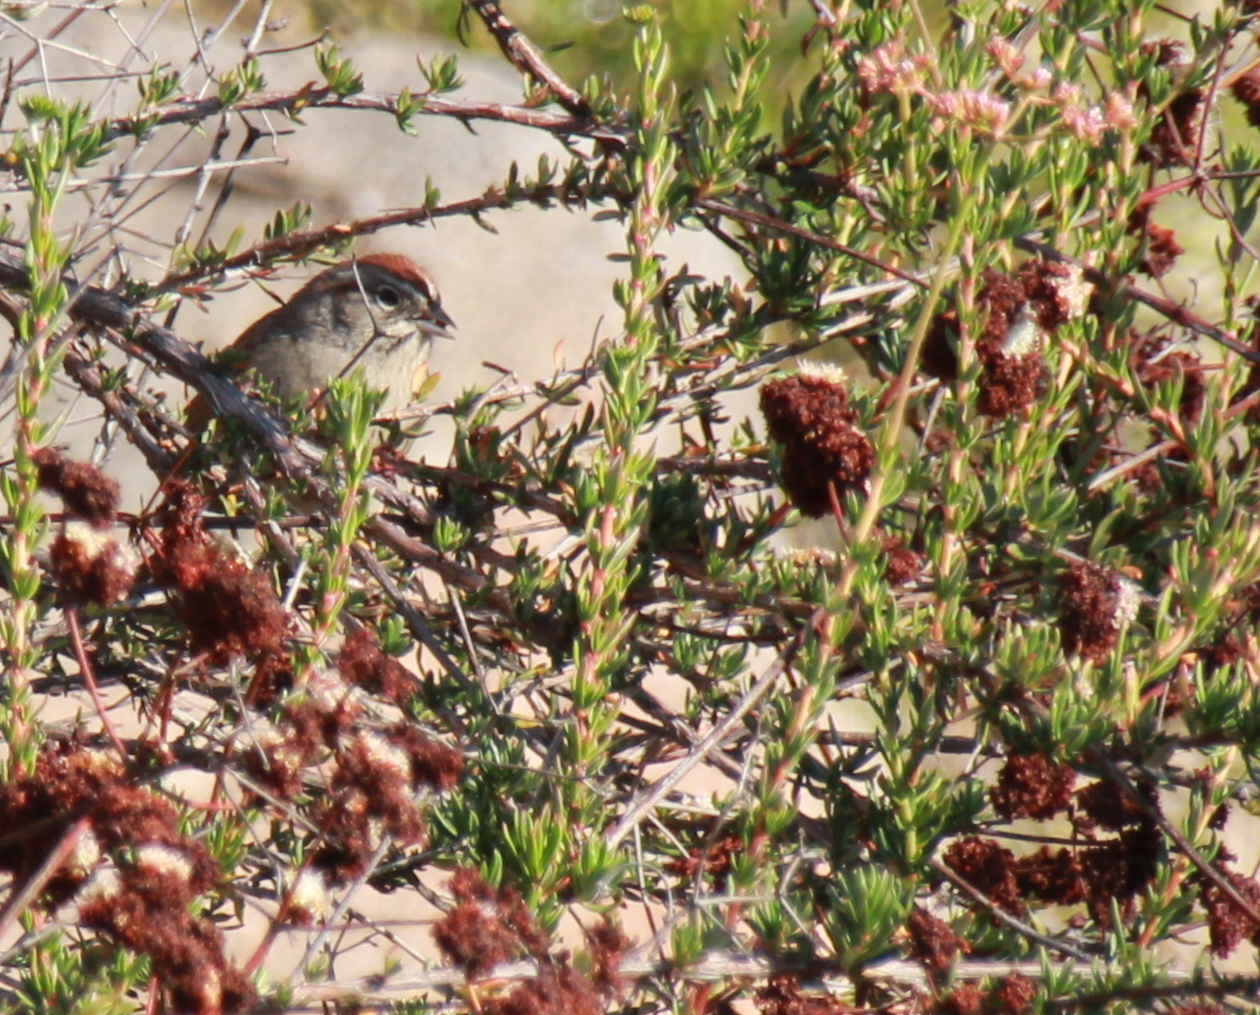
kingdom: Animalia
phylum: Chordata
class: Aves
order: Passeriformes
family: Passerellidae
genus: Aimophila
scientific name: Aimophila ruficeps
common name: Rufous-crowned sparrow
